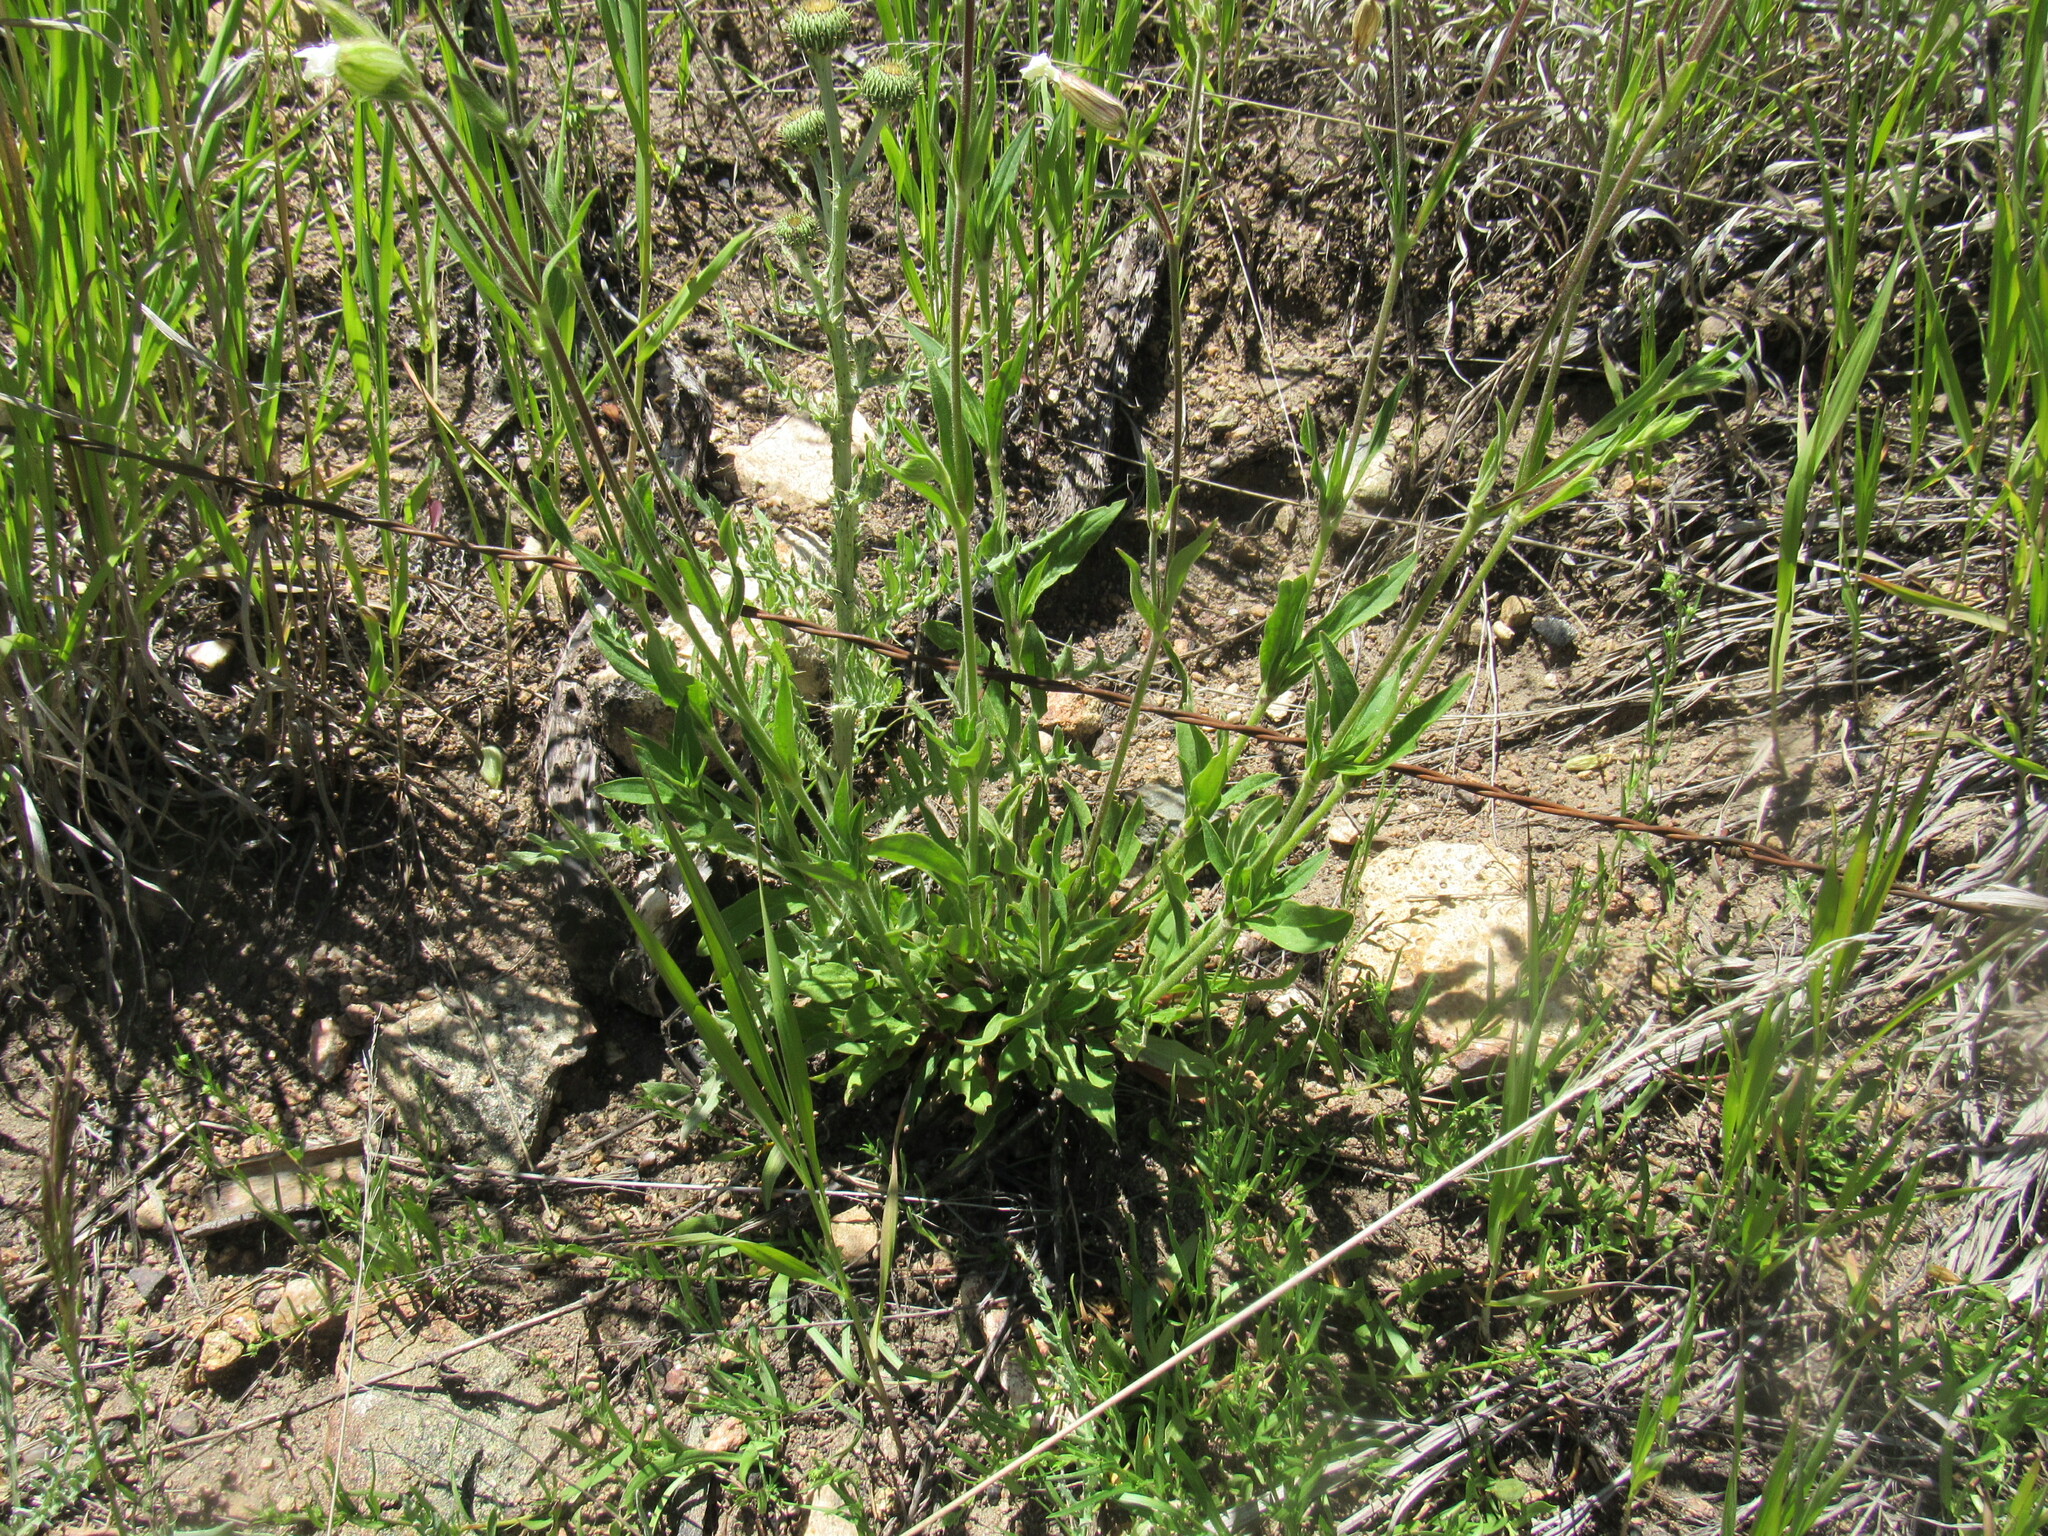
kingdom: Plantae
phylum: Tracheophyta
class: Magnoliopsida
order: Caryophyllales
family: Caryophyllaceae
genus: Silene
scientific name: Silene latifolia
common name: White campion
